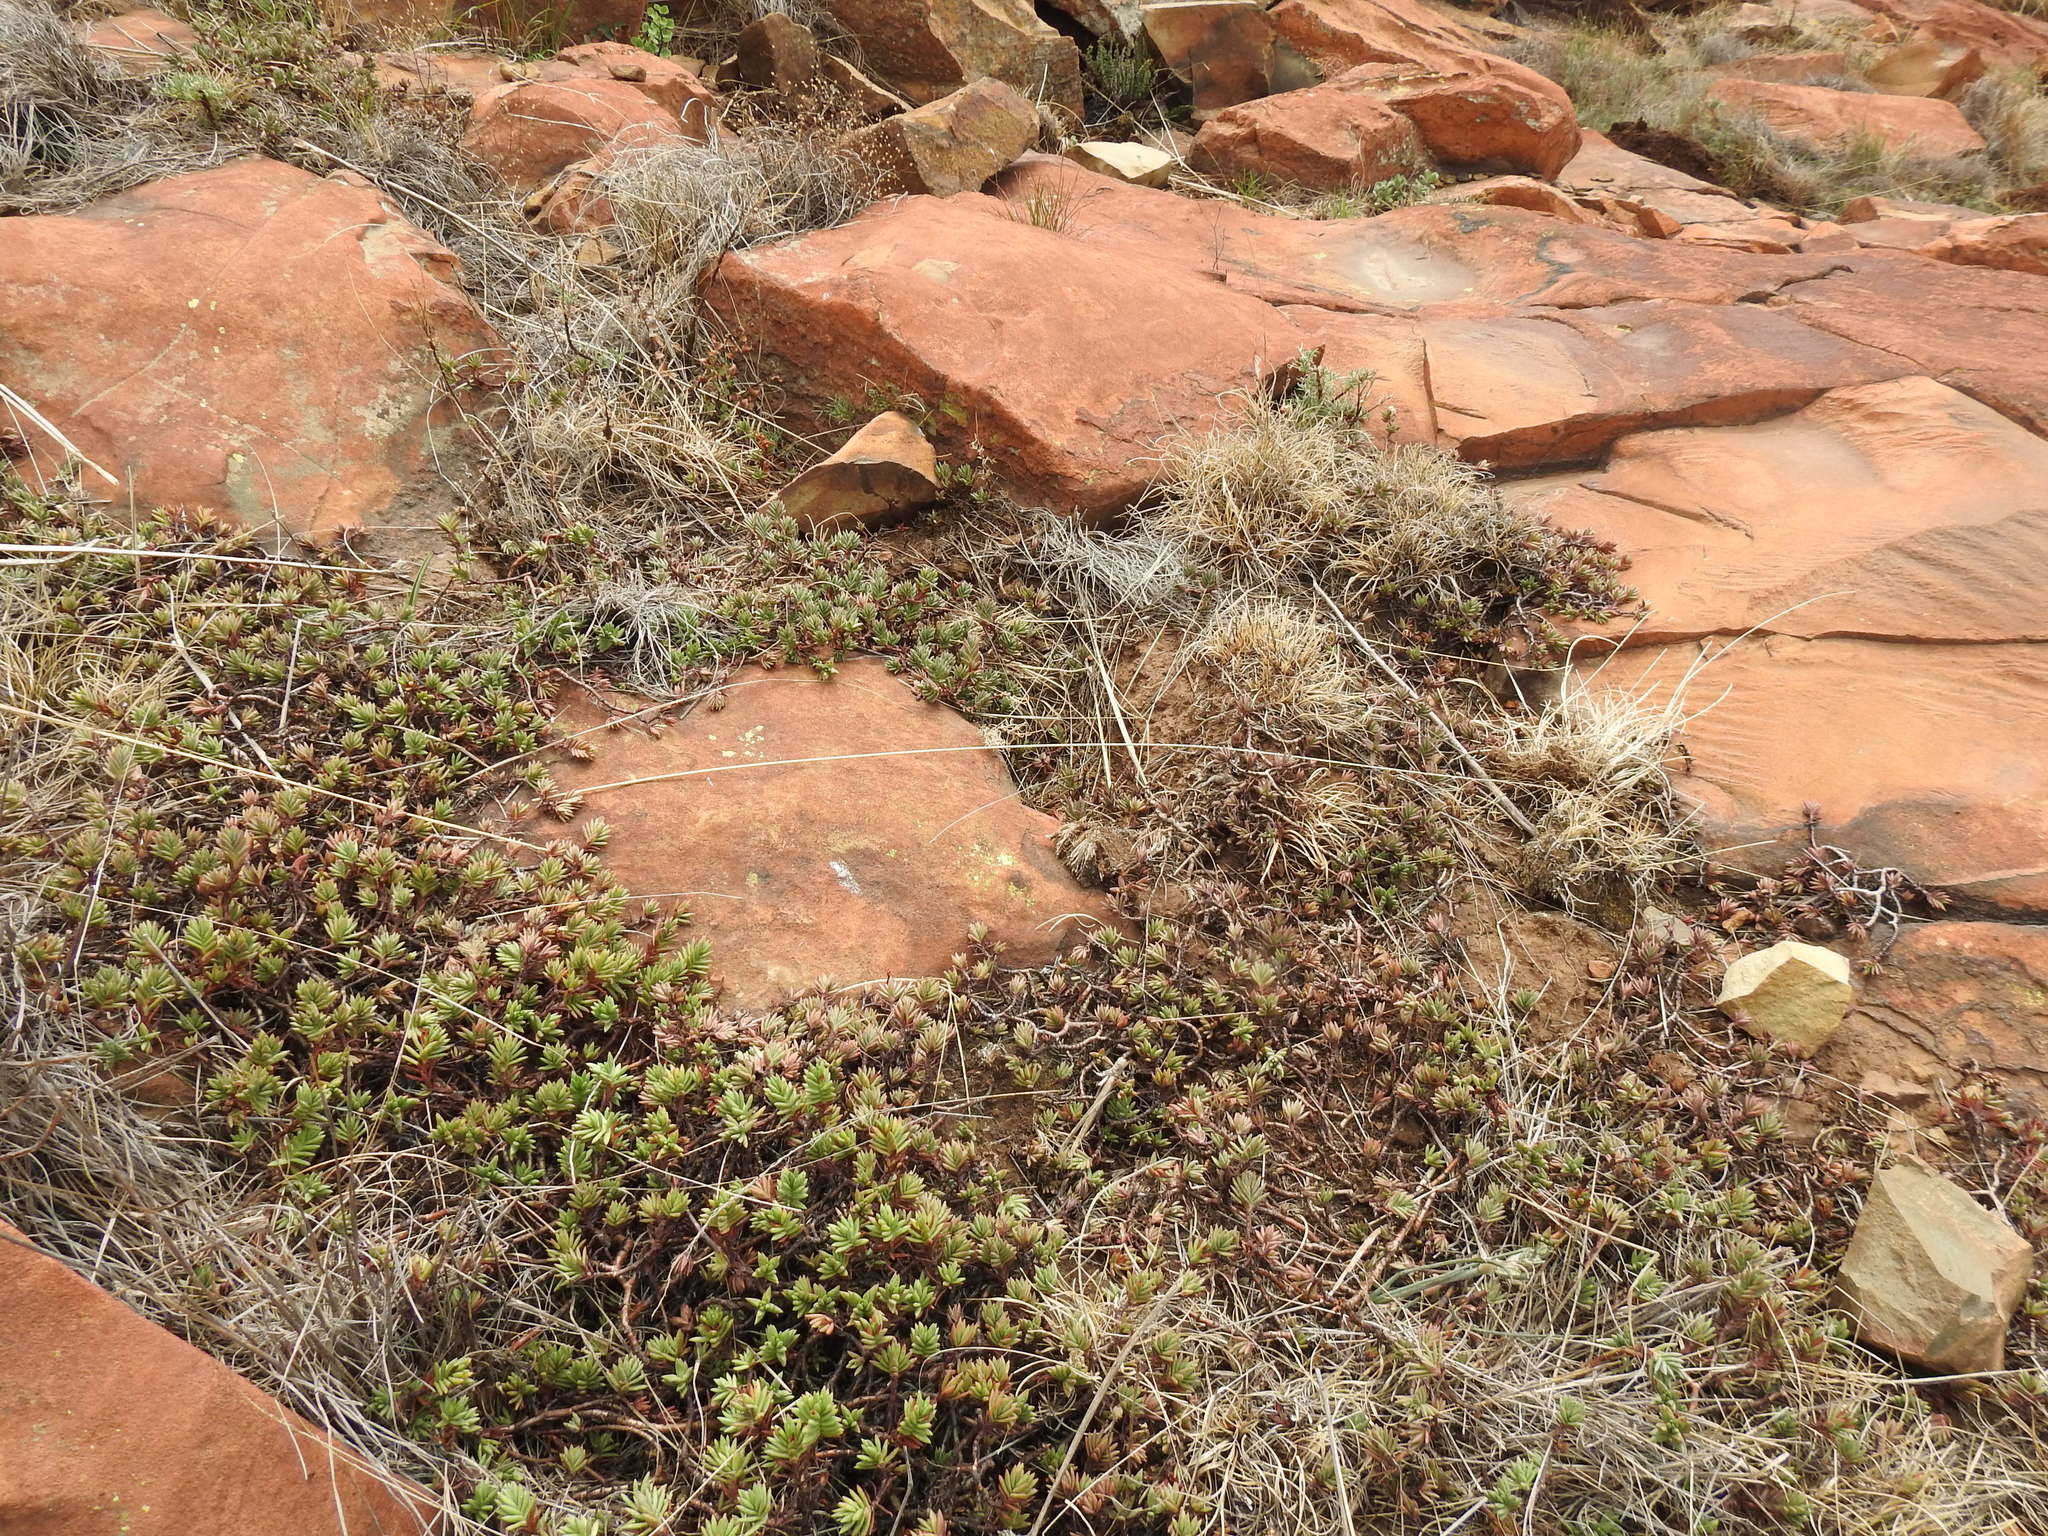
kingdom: Plantae
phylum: Tracheophyta
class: Magnoliopsida
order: Saxifragales
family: Crassulaceae
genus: Crassula
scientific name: Crassula dependens
